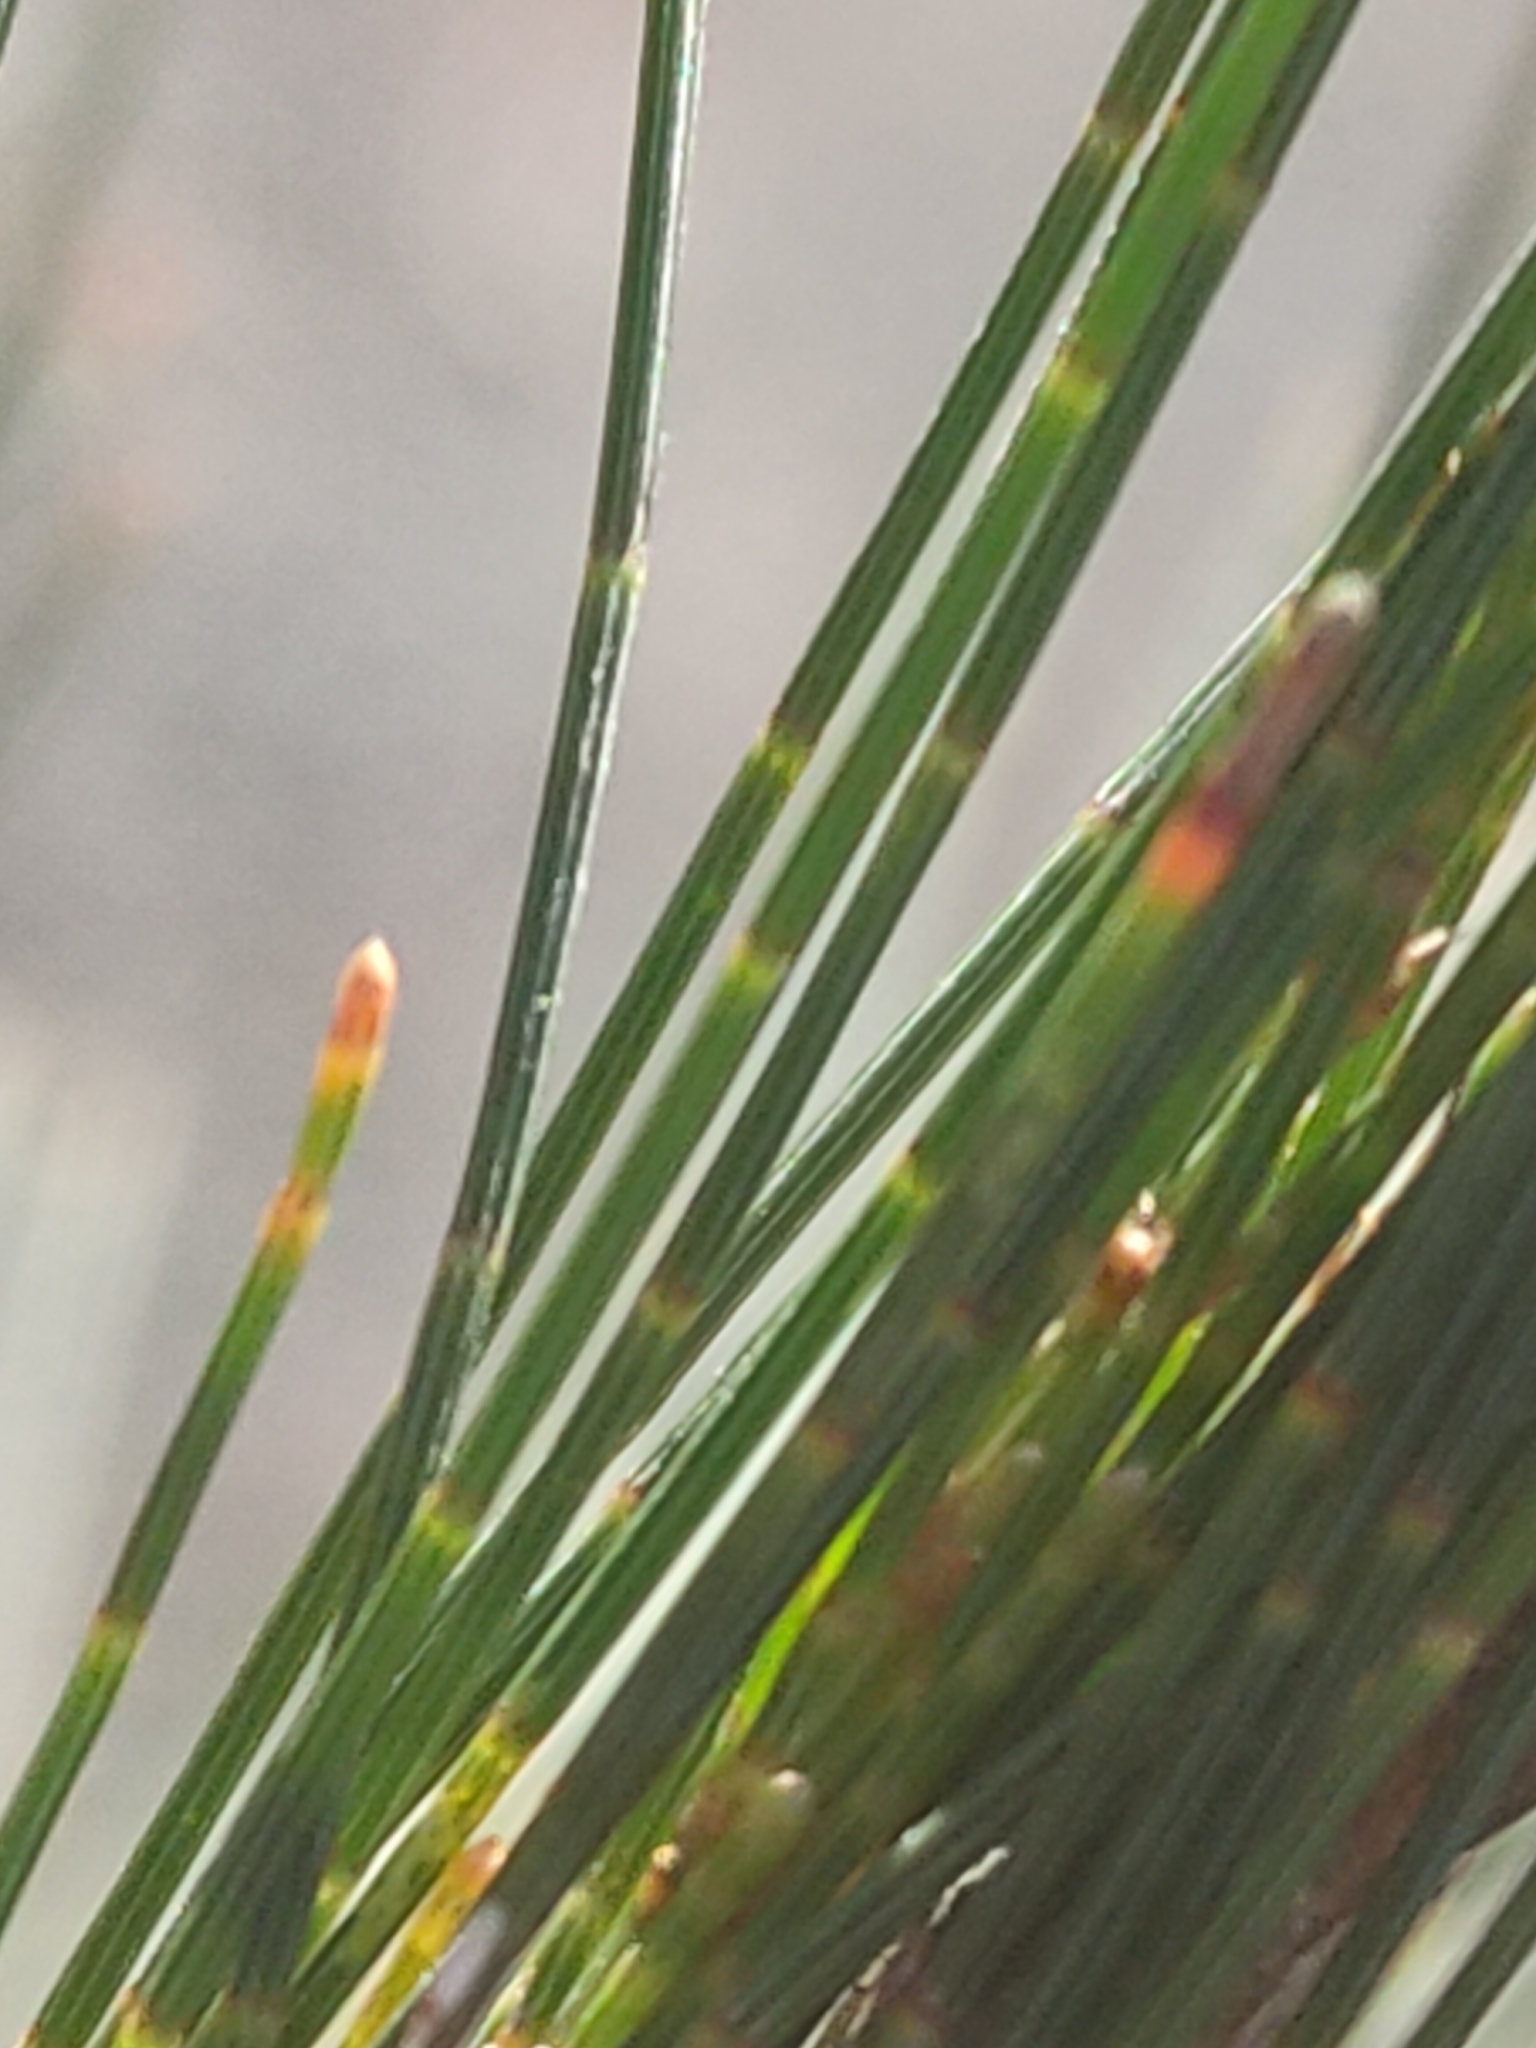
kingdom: Plantae
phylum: Tracheophyta
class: Magnoliopsida
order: Fagales
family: Casuarinaceae
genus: Allocasuarina
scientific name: Allocasuarina littoralis
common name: Black she-oak
